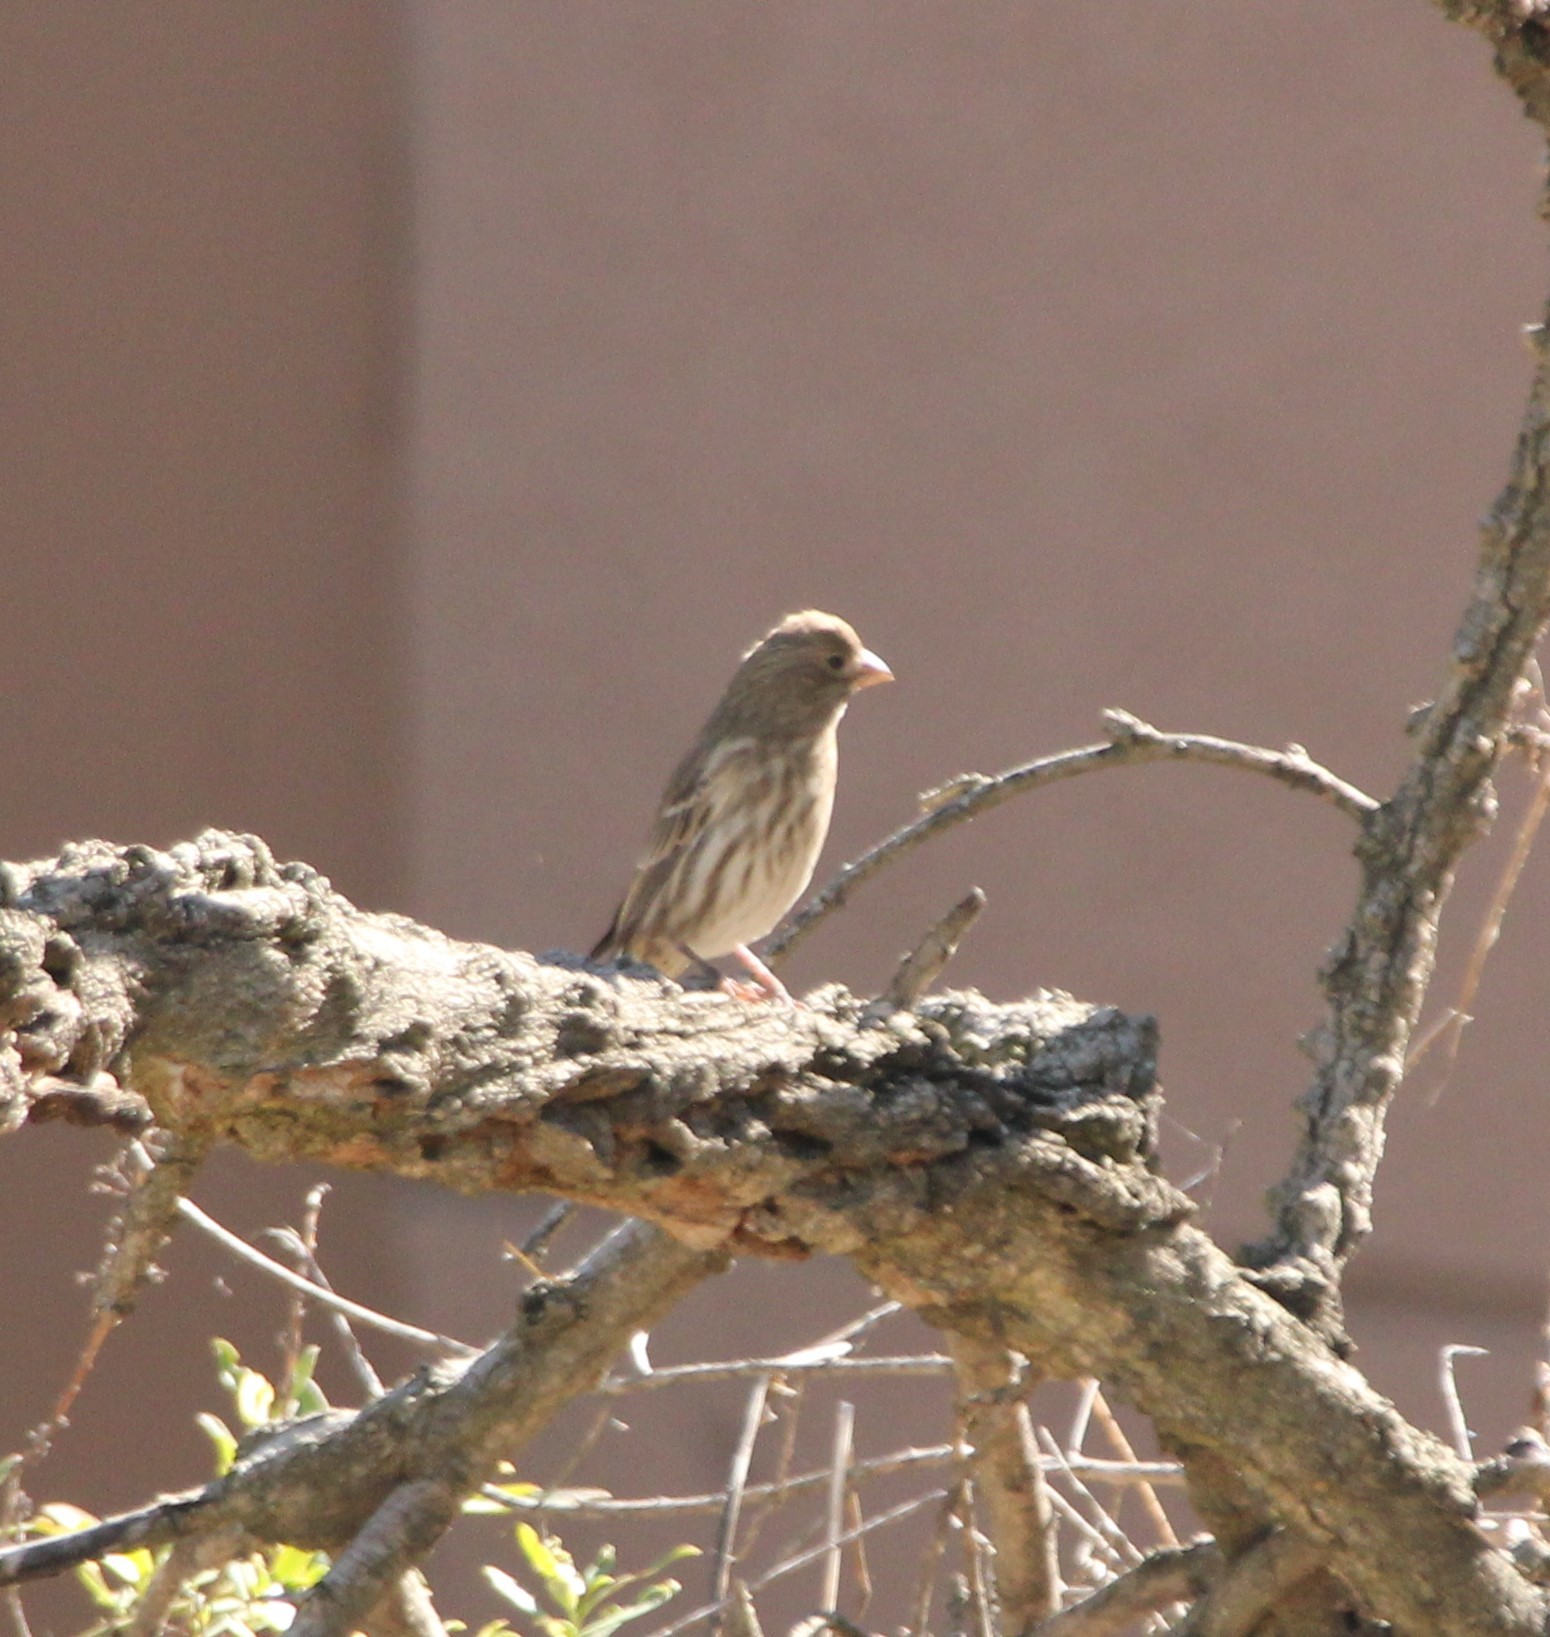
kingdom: Animalia
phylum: Chordata
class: Aves
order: Passeriformes
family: Fringillidae
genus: Haemorhous
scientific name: Haemorhous mexicanus
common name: House finch
